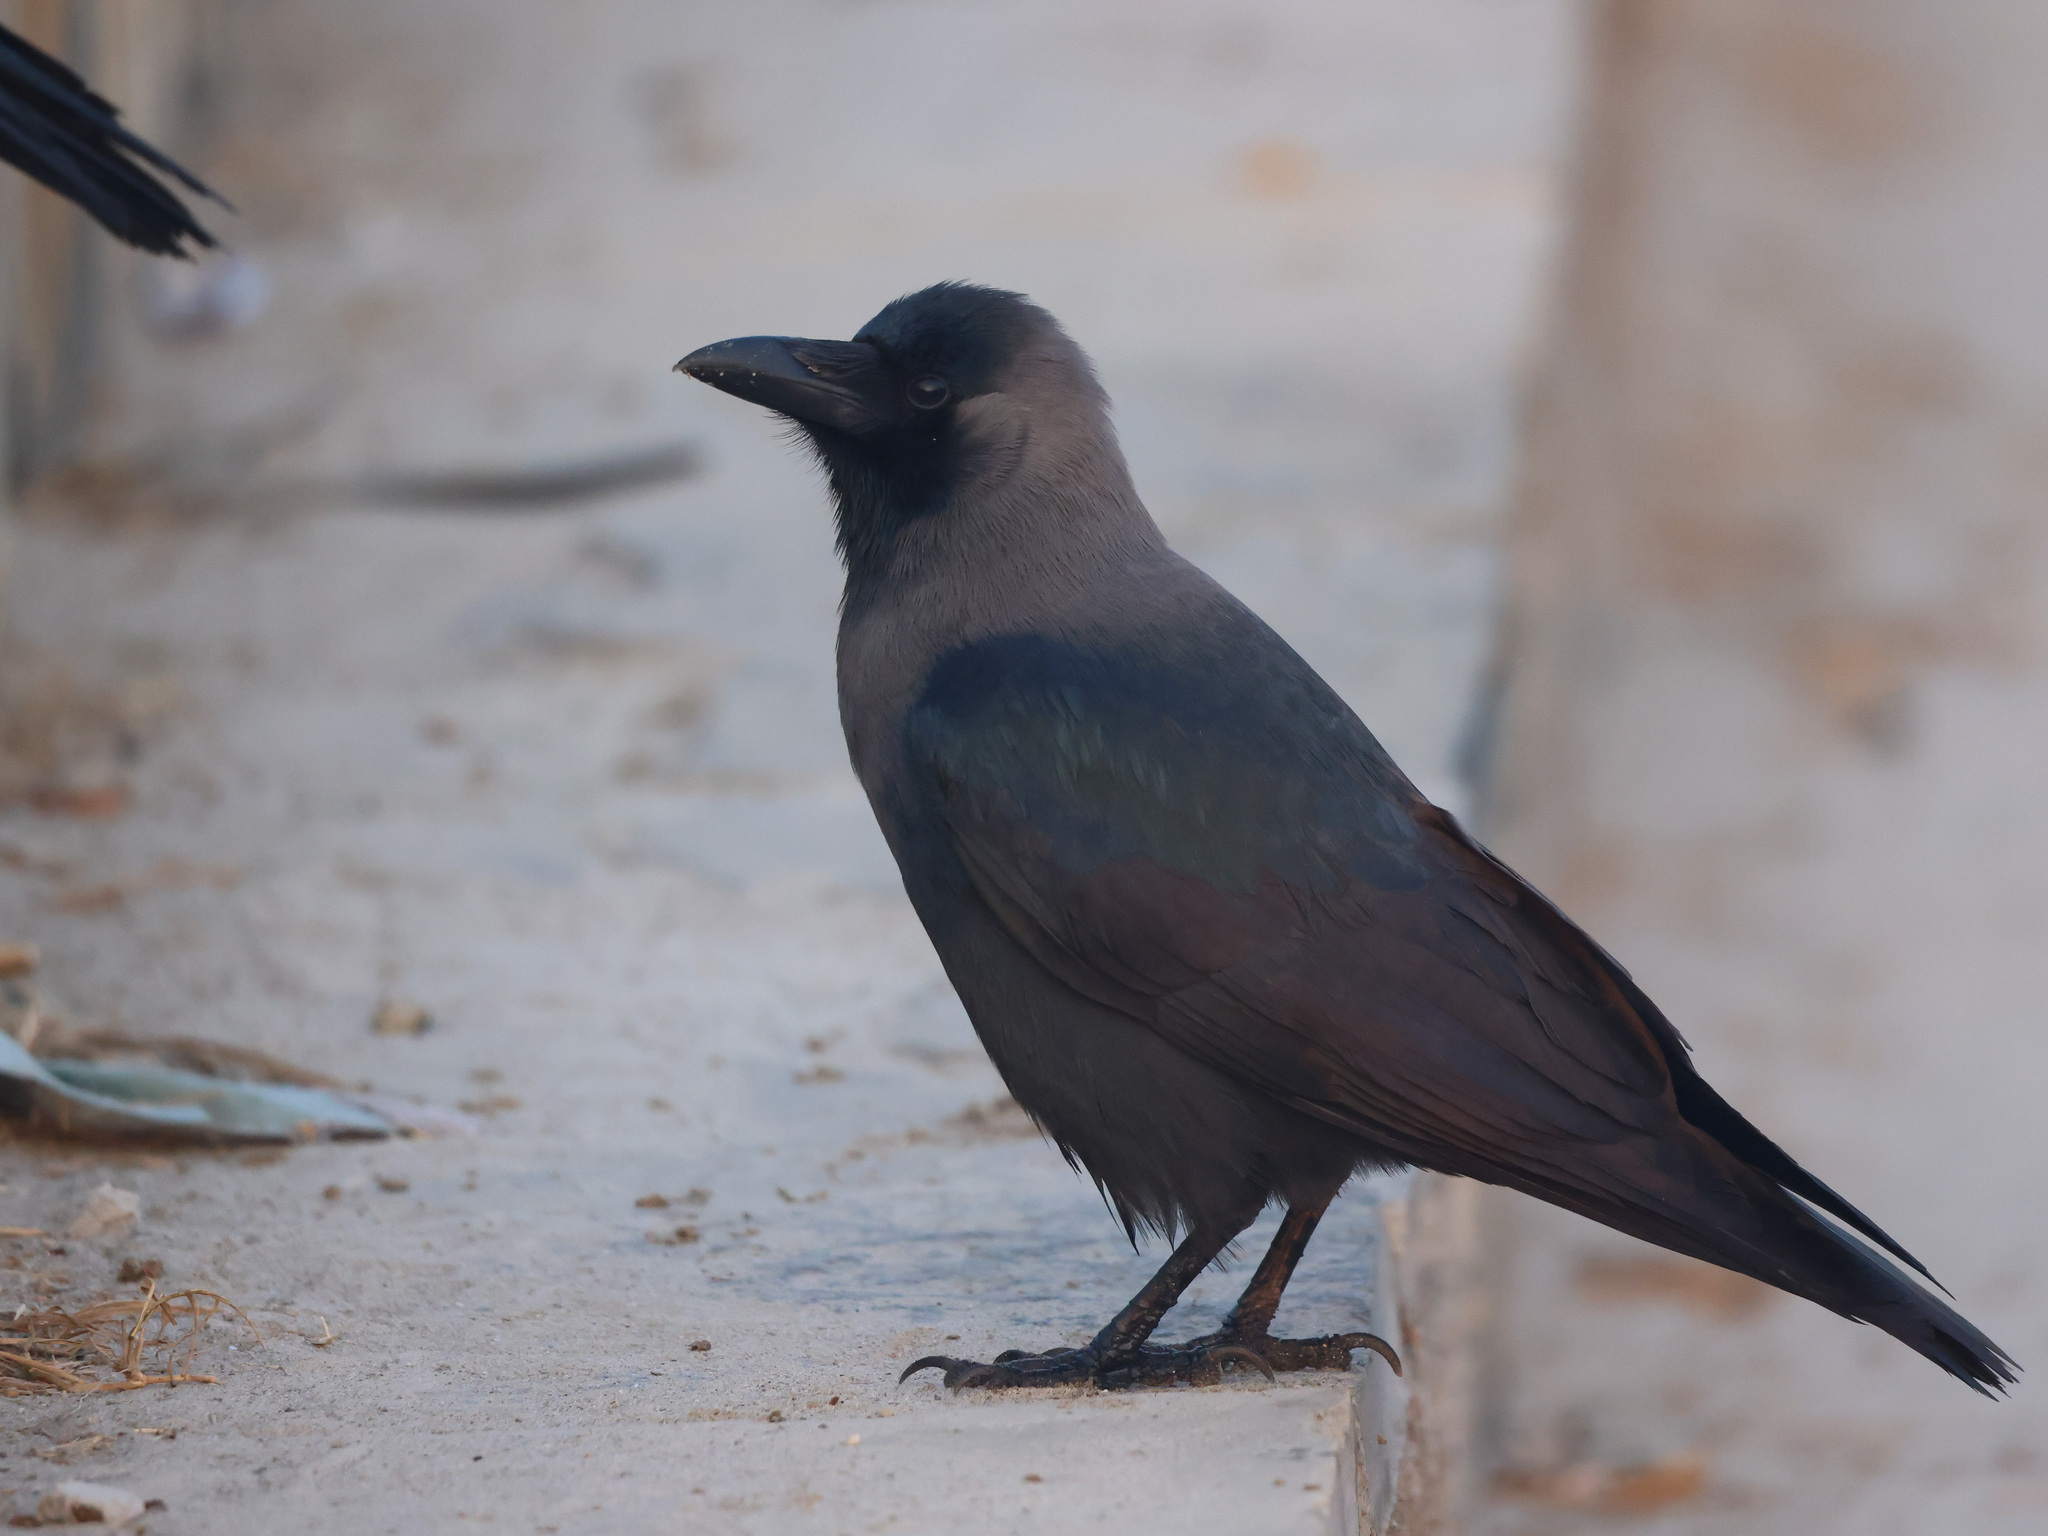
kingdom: Animalia
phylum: Chordata
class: Aves
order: Passeriformes
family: Corvidae
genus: Corvus
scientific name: Corvus splendens
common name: House crow
